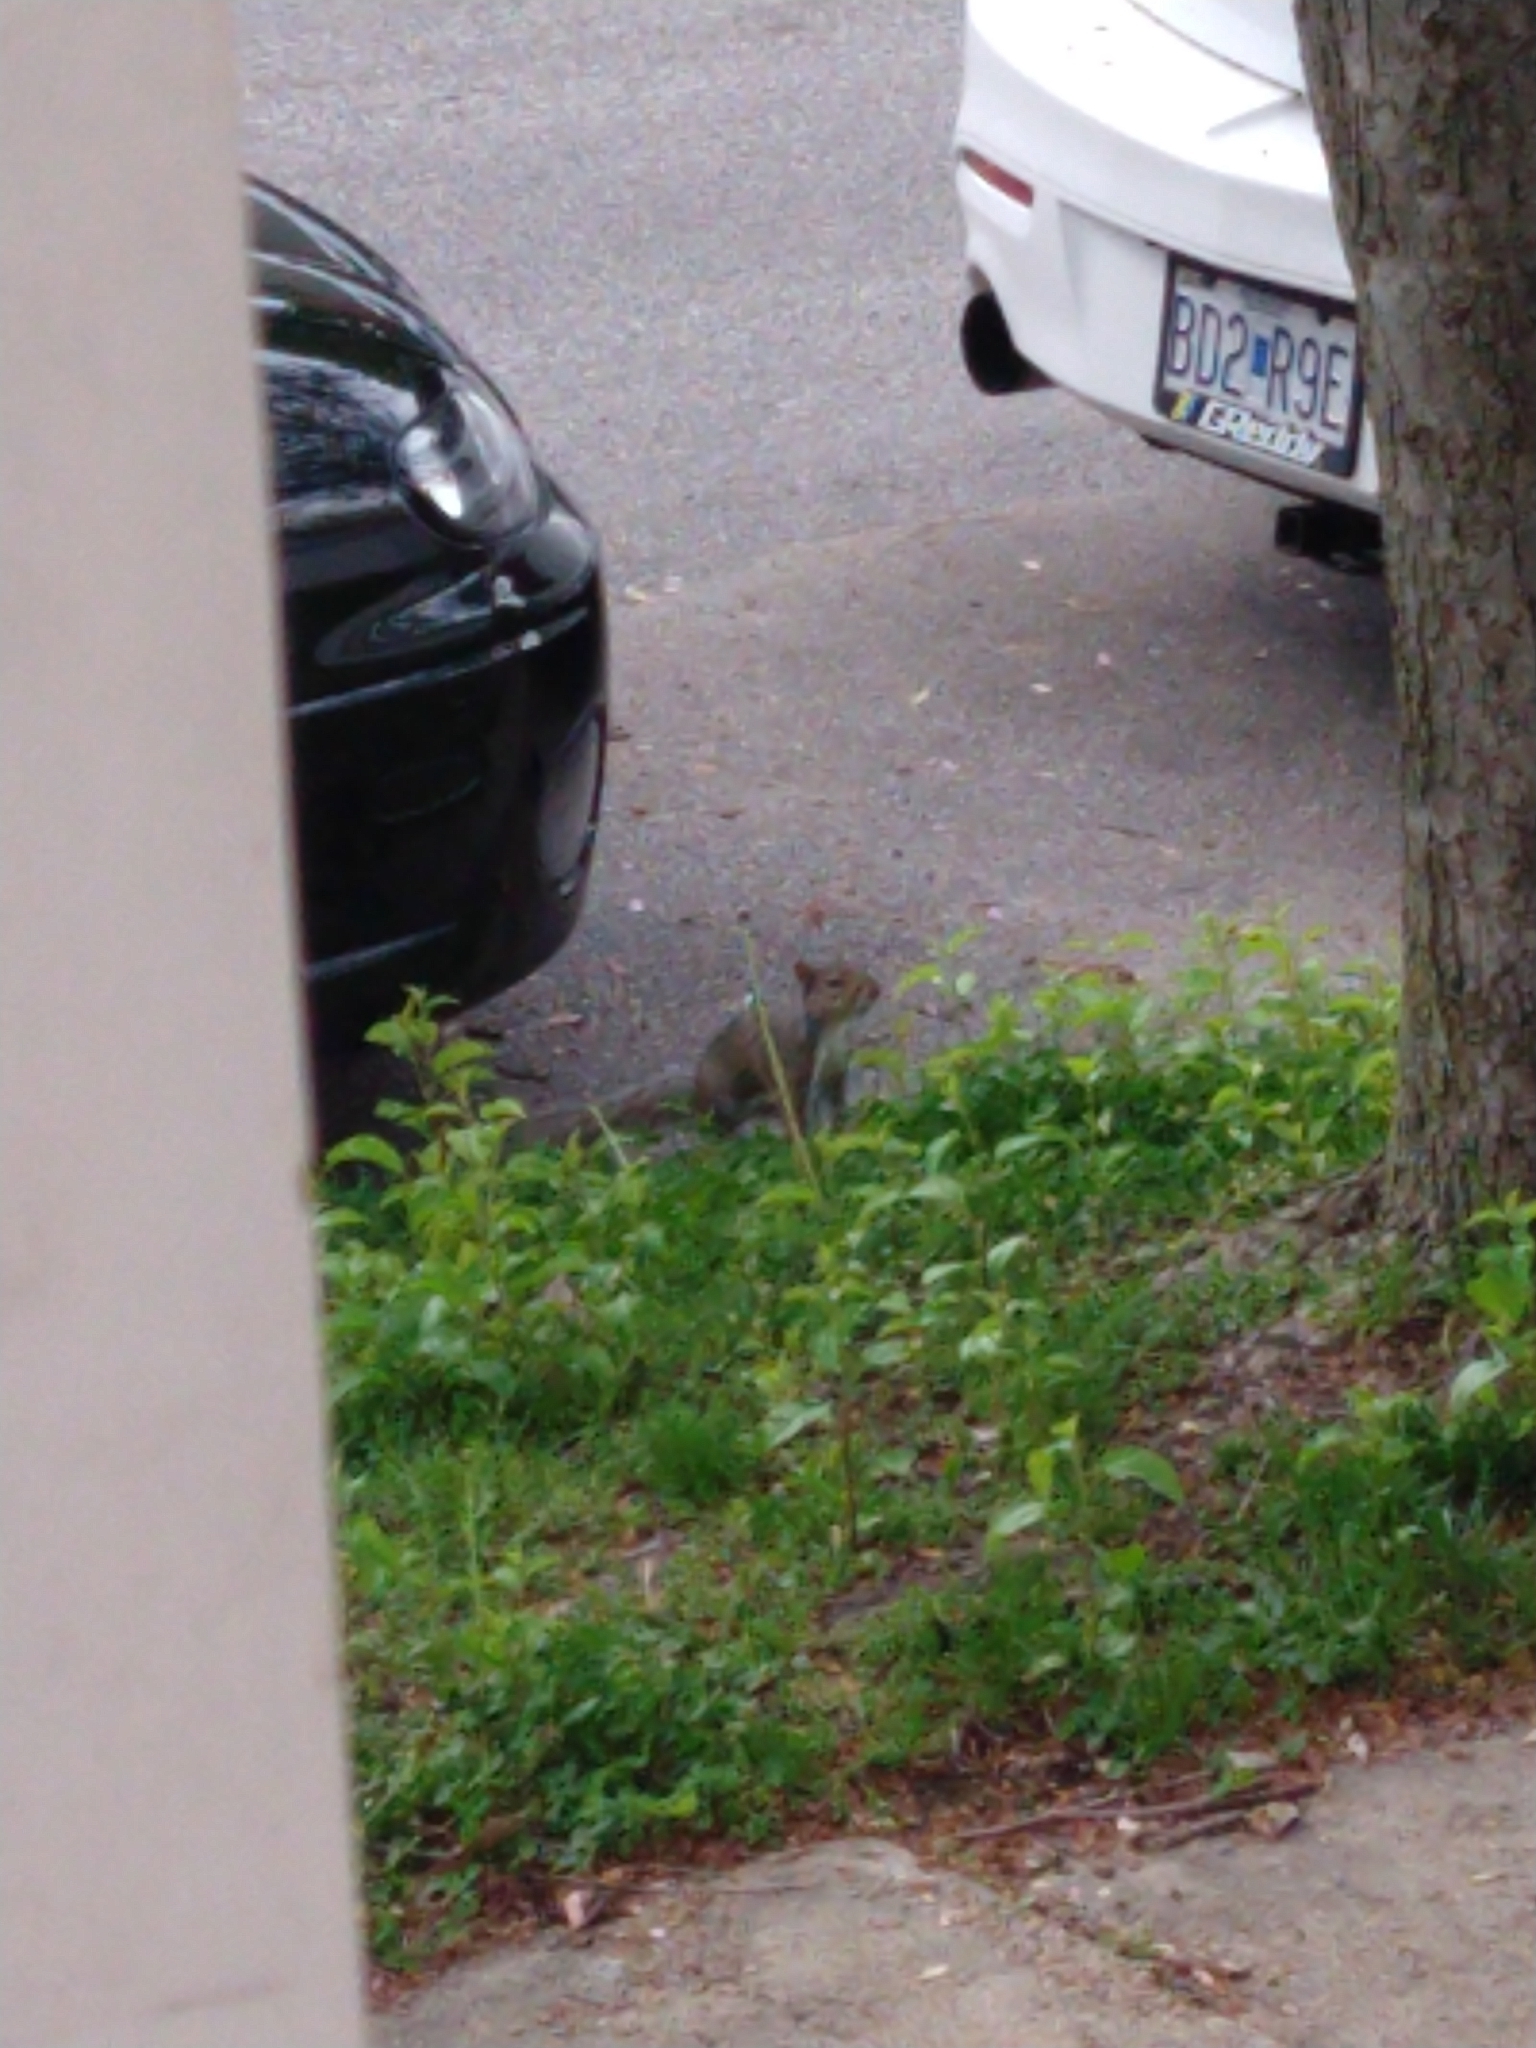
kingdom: Animalia
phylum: Chordata
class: Mammalia
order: Rodentia
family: Sciuridae
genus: Sciurus
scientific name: Sciurus carolinensis
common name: Eastern gray squirrel
